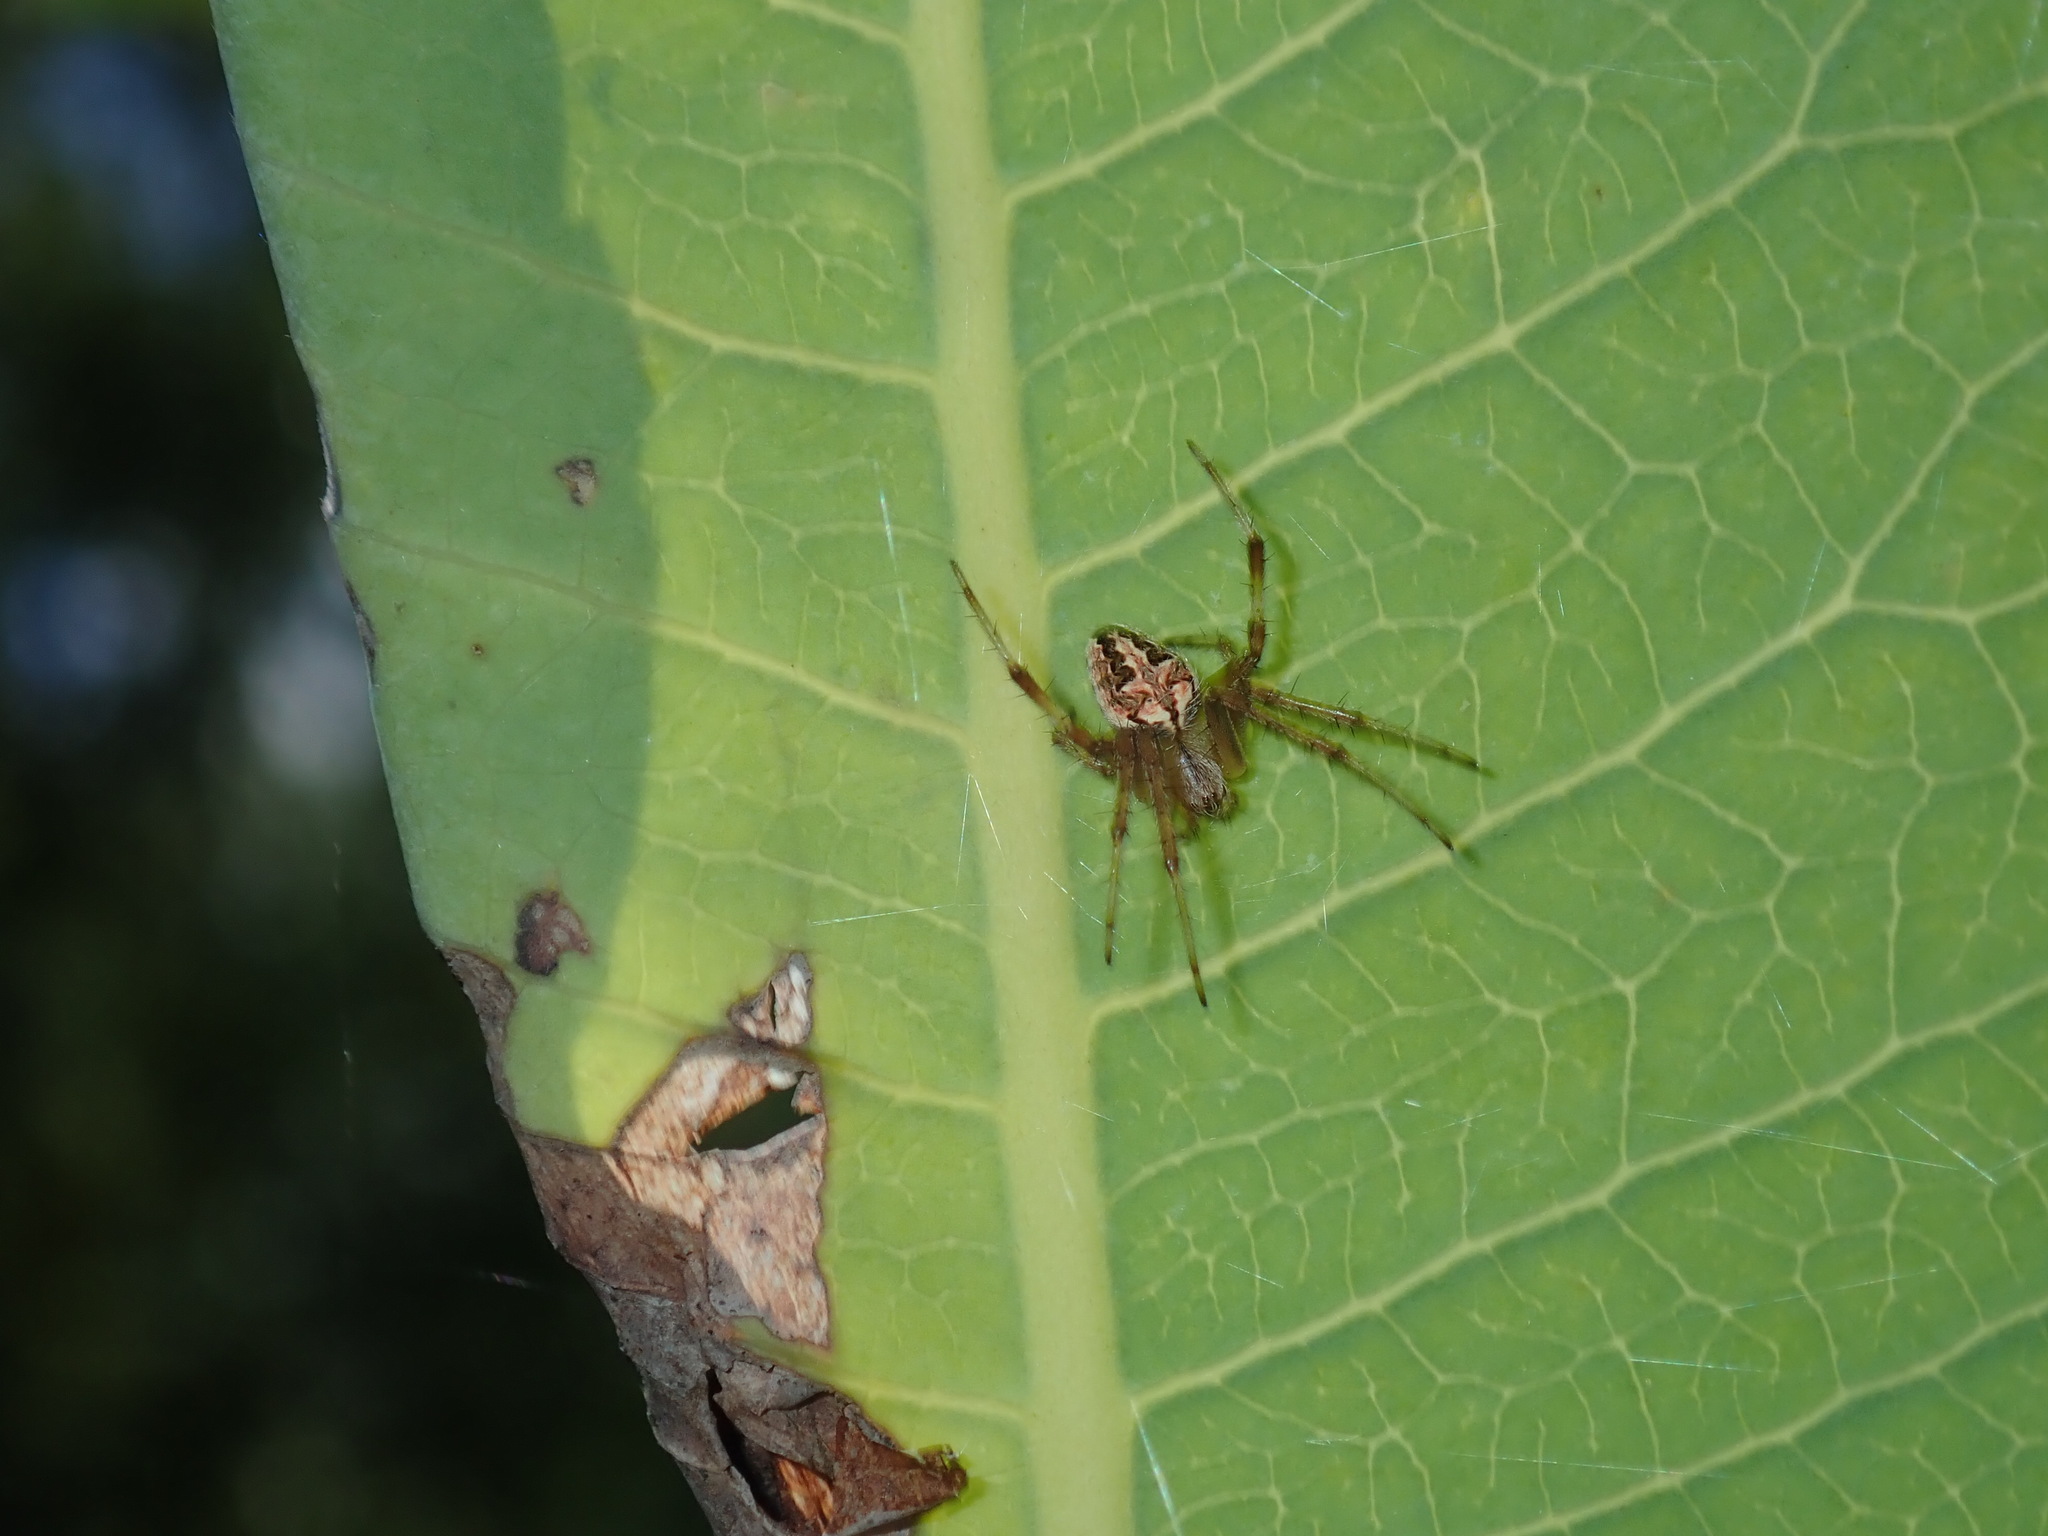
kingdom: Animalia
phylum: Arthropoda
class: Arachnida
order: Araneae
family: Araneidae
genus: Neoscona
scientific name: Neoscona theisi
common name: Spider
